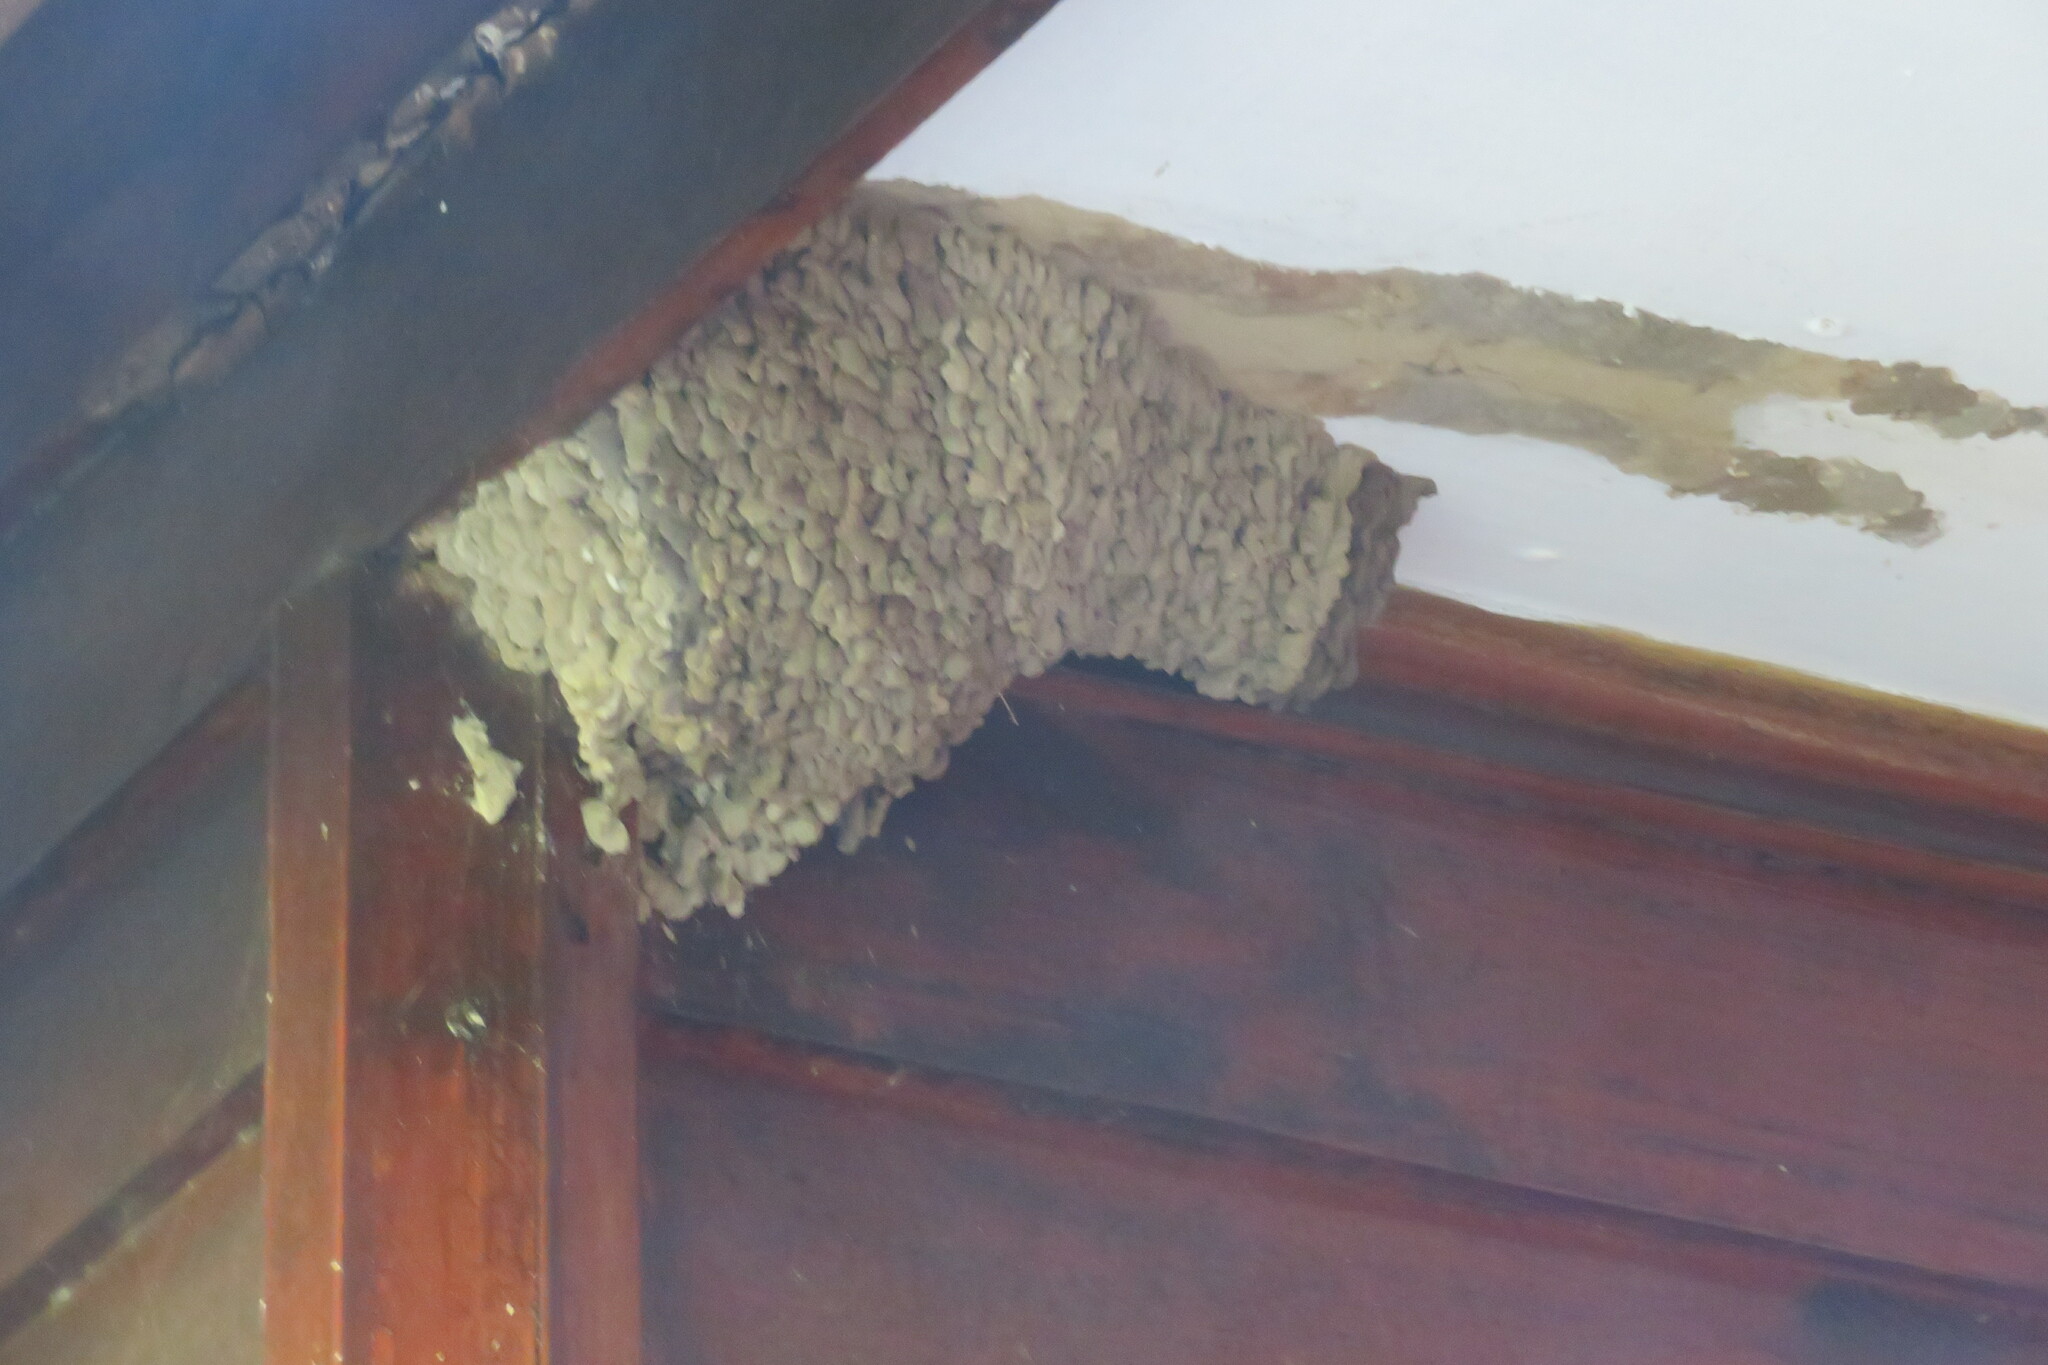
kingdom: Animalia
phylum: Chordata
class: Aves
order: Passeriformes
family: Hirundinidae
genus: Cecropis
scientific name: Cecropis cucullata
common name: Greater striped-swallow
